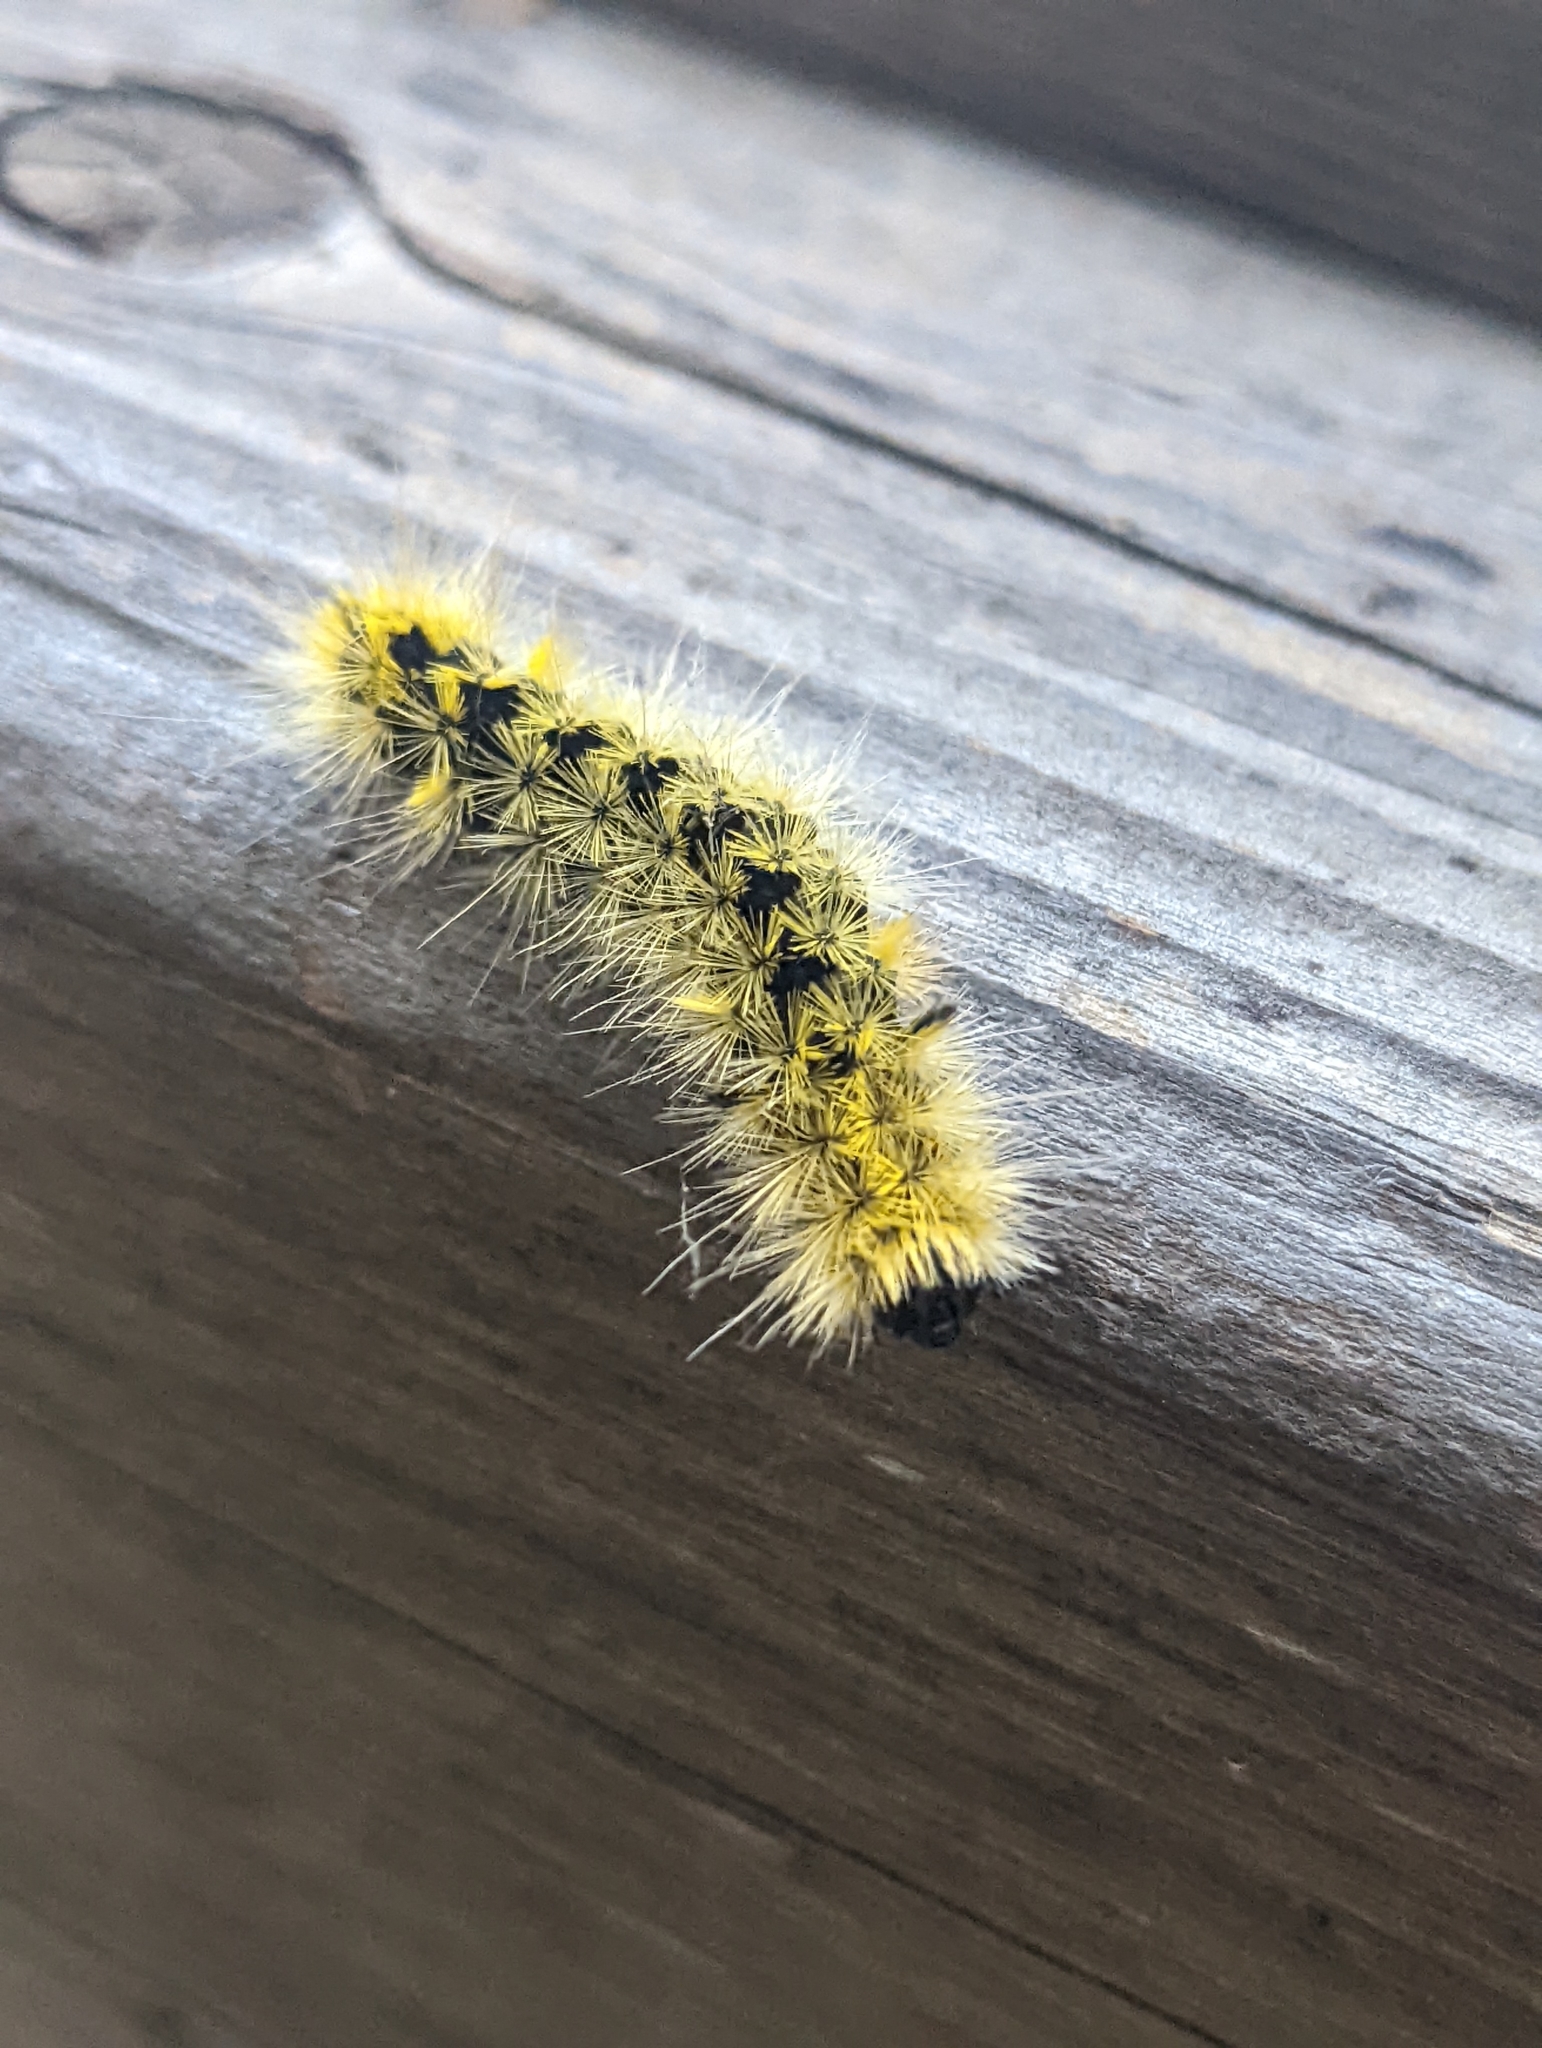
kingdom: Animalia
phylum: Arthropoda
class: Insecta
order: Lepidoptera
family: Erebidae
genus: Lophocampa
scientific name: Lophocampa argentata
